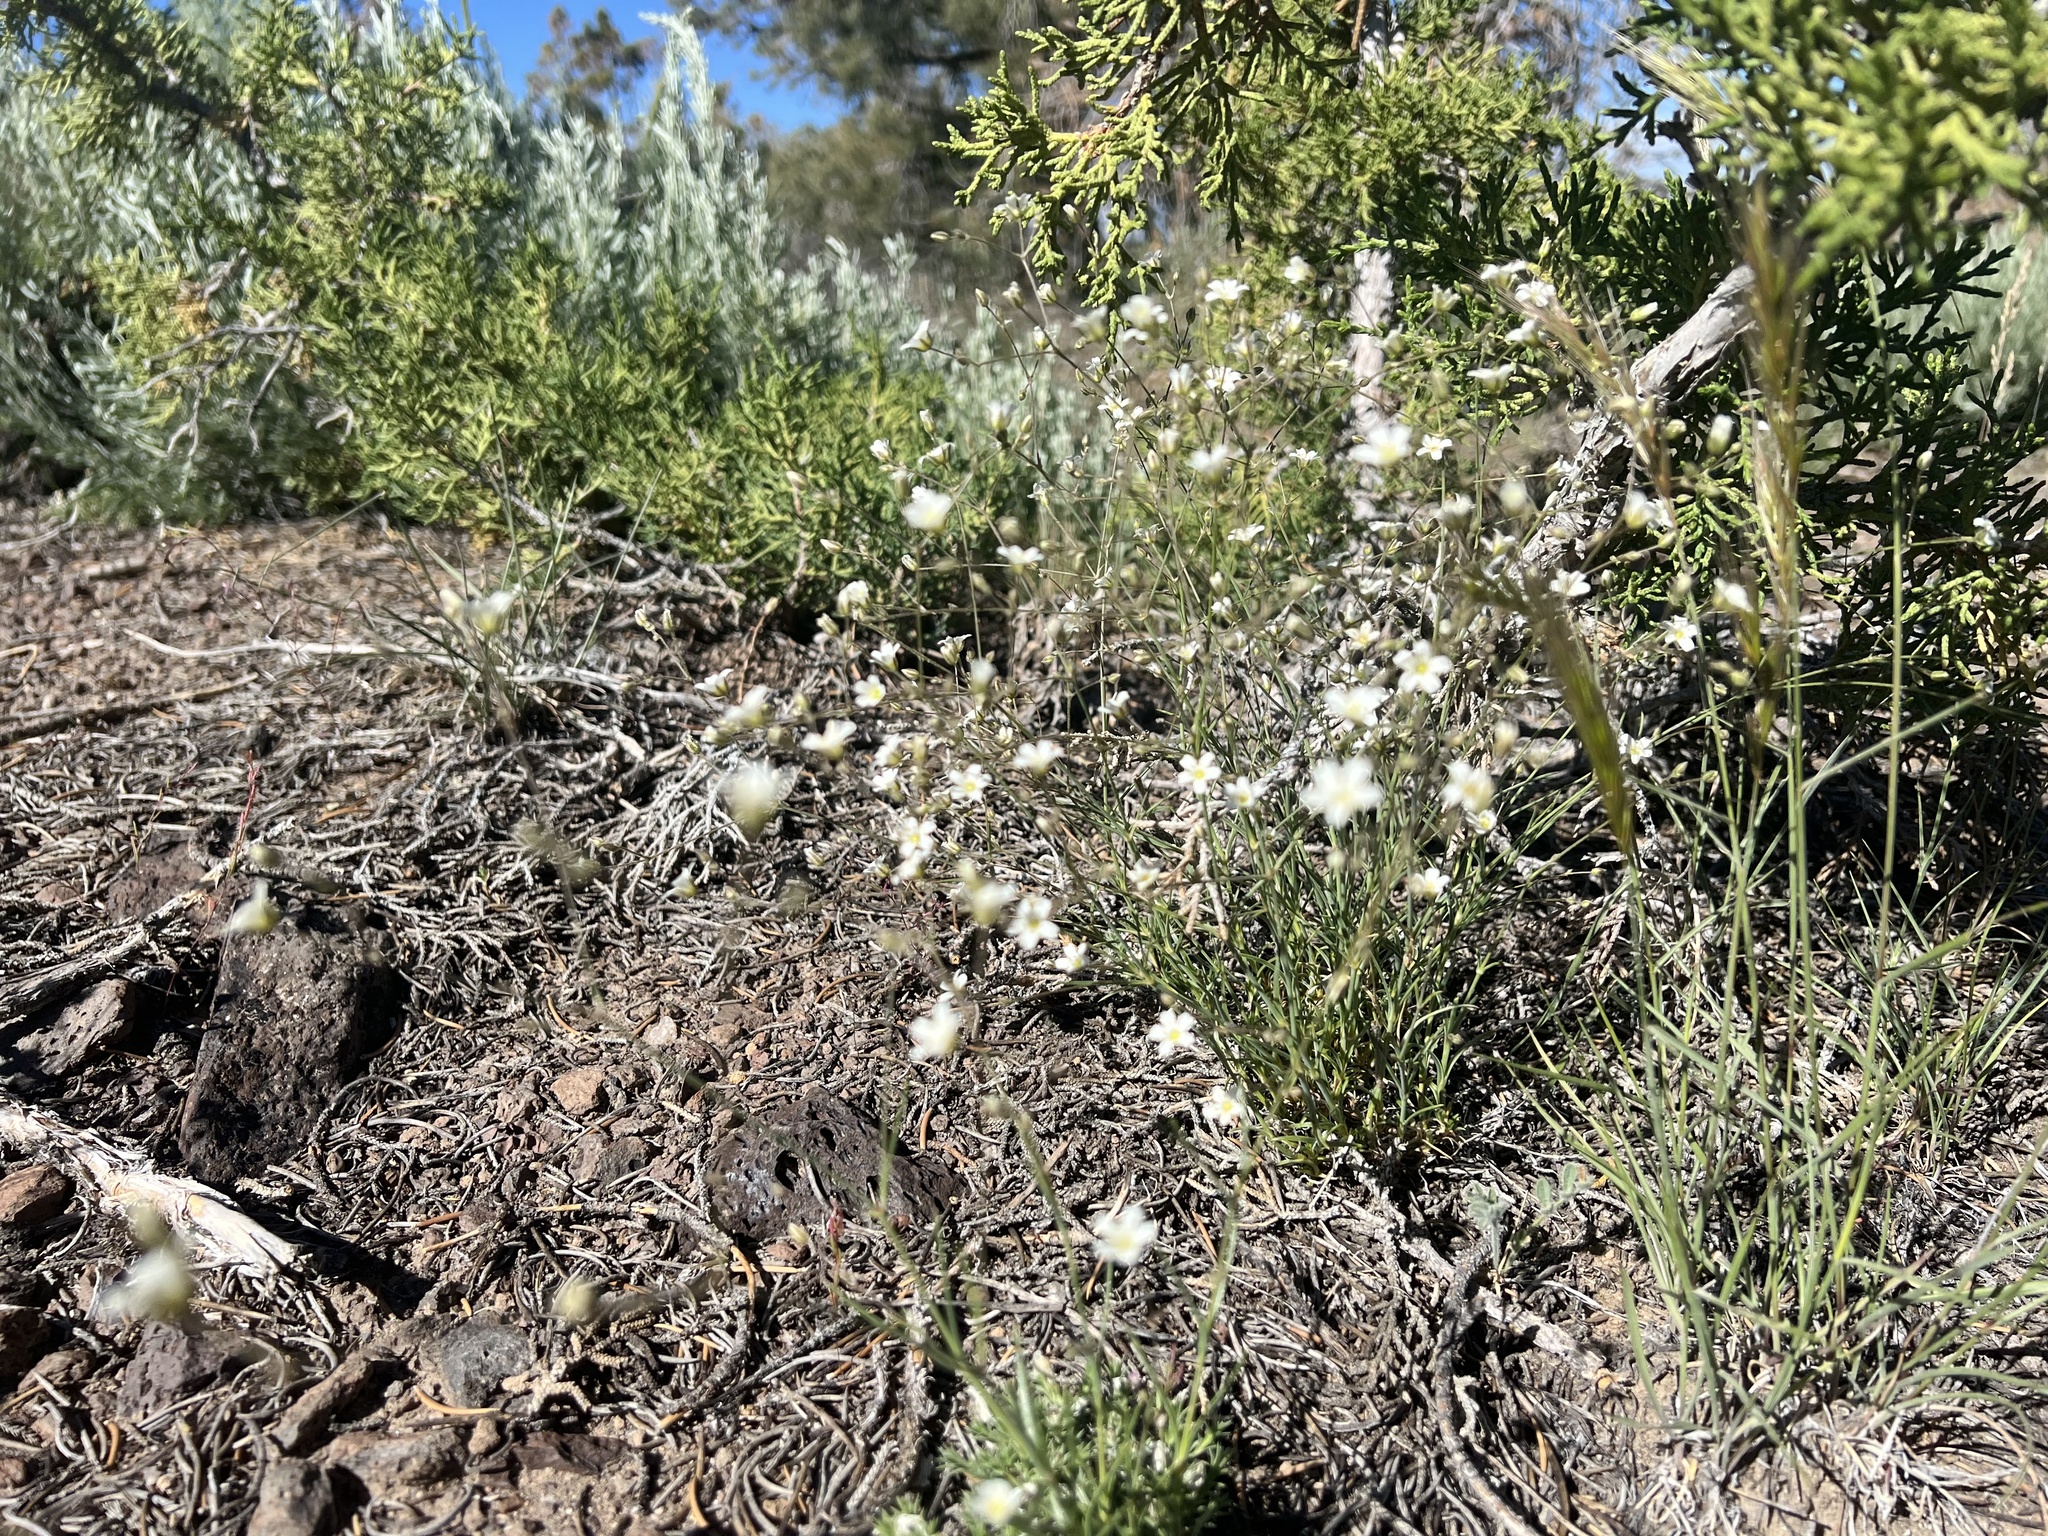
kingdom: Plantae
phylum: Tracheophyta
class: Magnoliopsida
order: Caryophyllales
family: Caryophyllaceae
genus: Eremogone
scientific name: Eremogone ferrisiae
